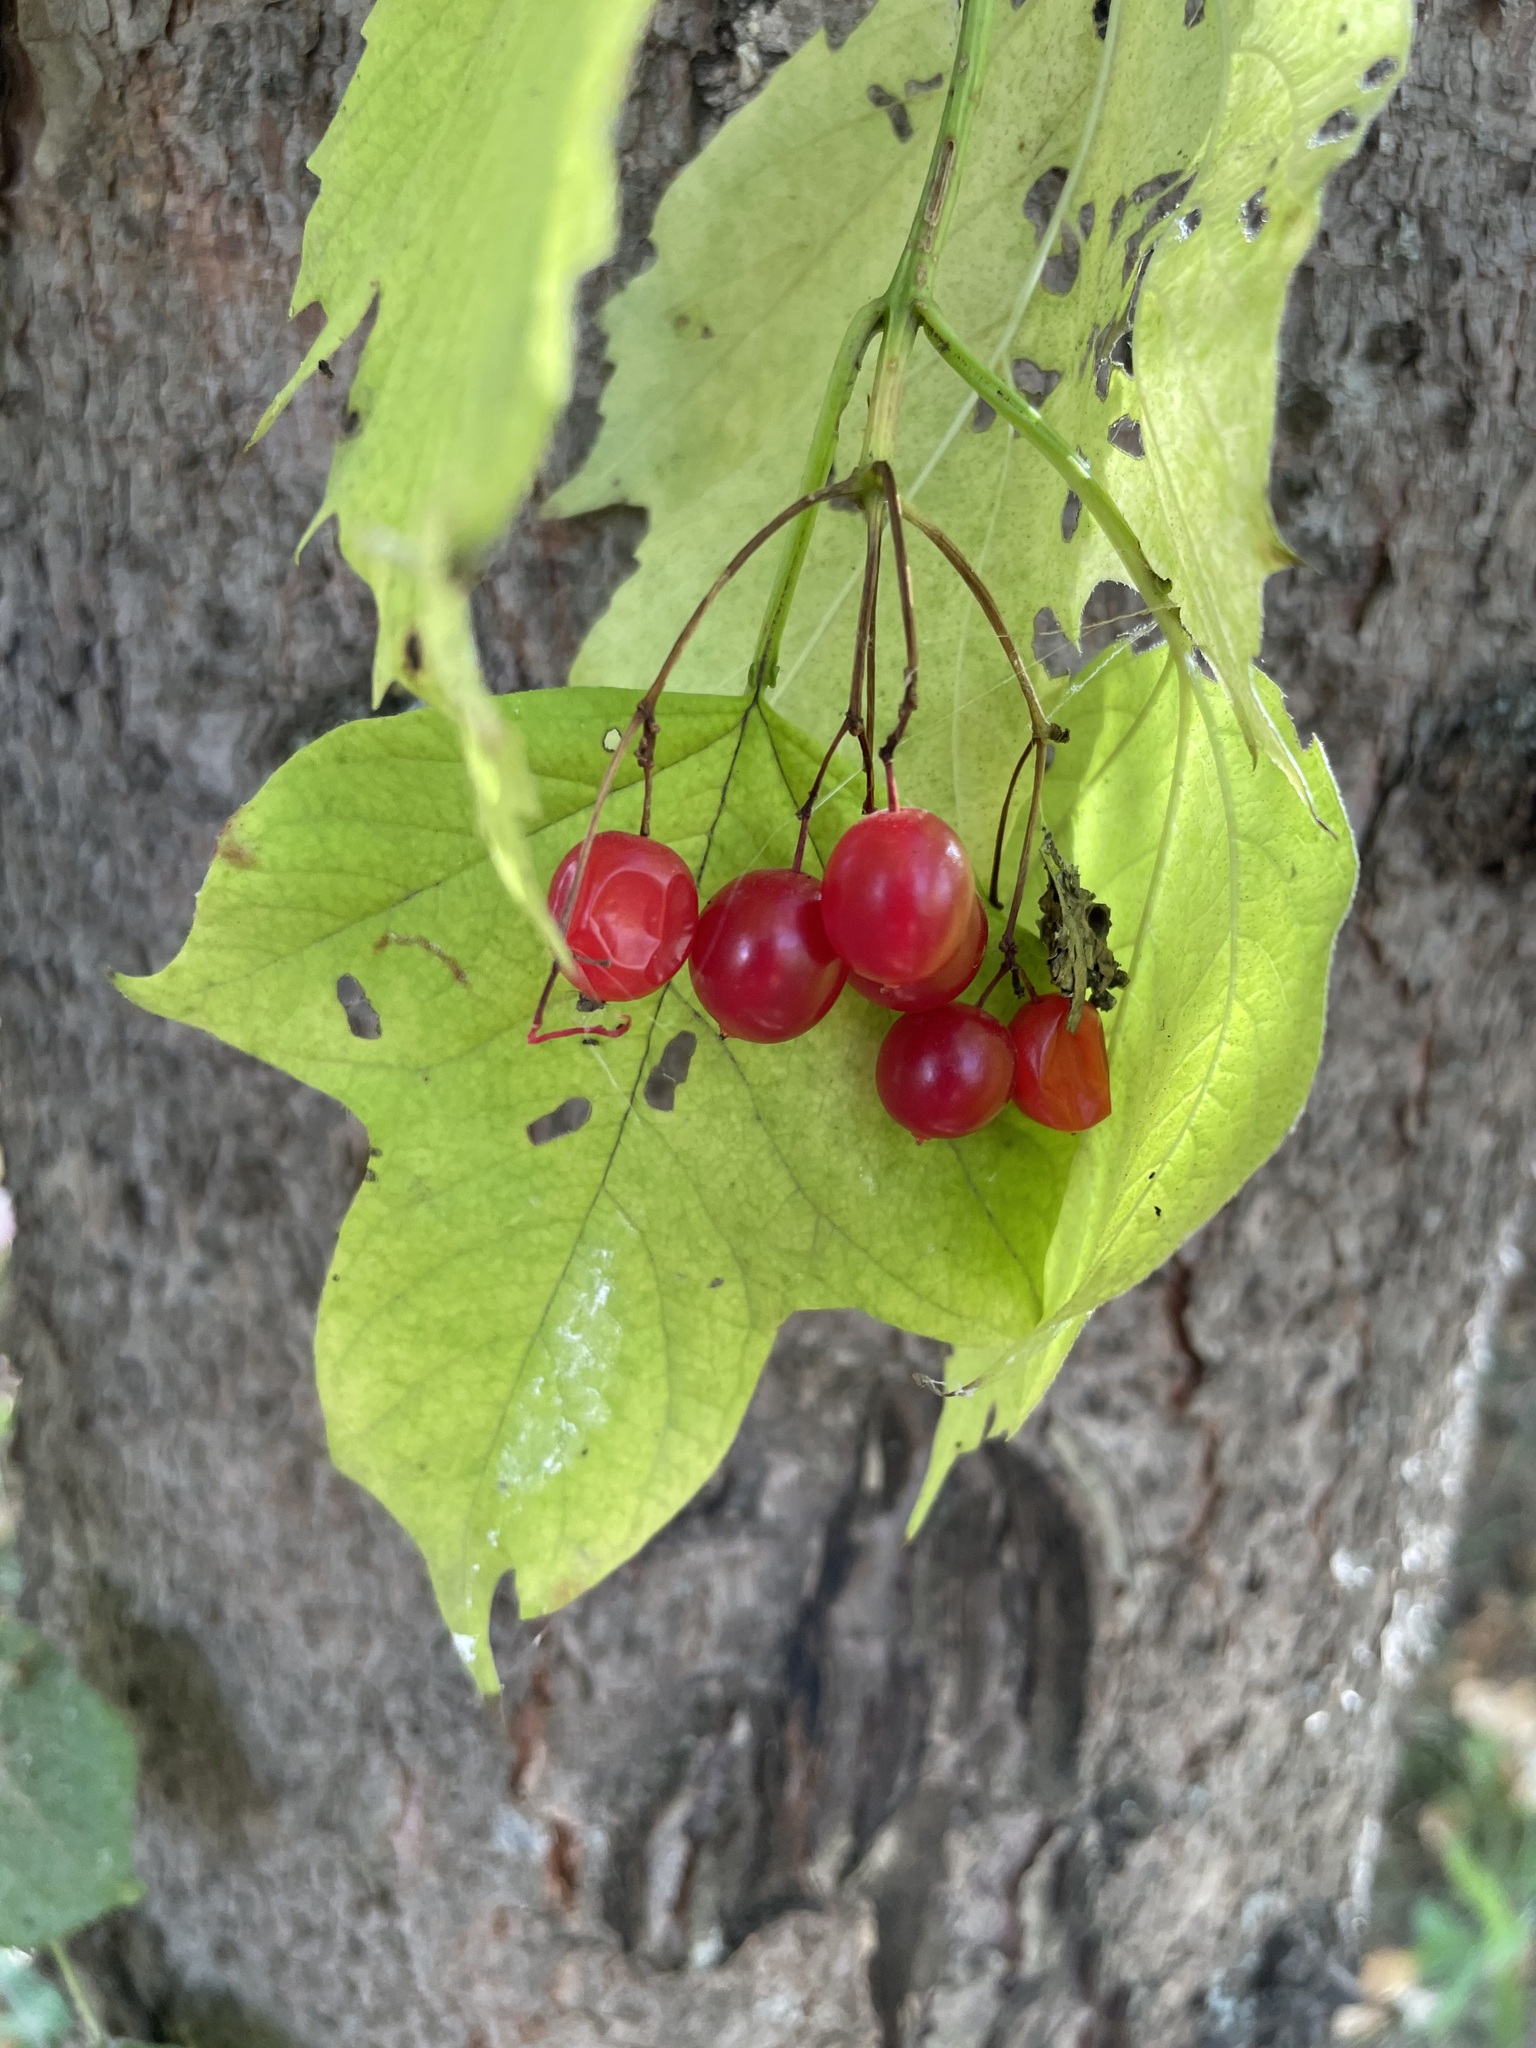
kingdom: Plantae
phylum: Tracheophyta
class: Magnoliopsida
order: Dipsacales
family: Viburnaceae
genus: Viburnum
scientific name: Viburnum opulus
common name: Guelder-rose
